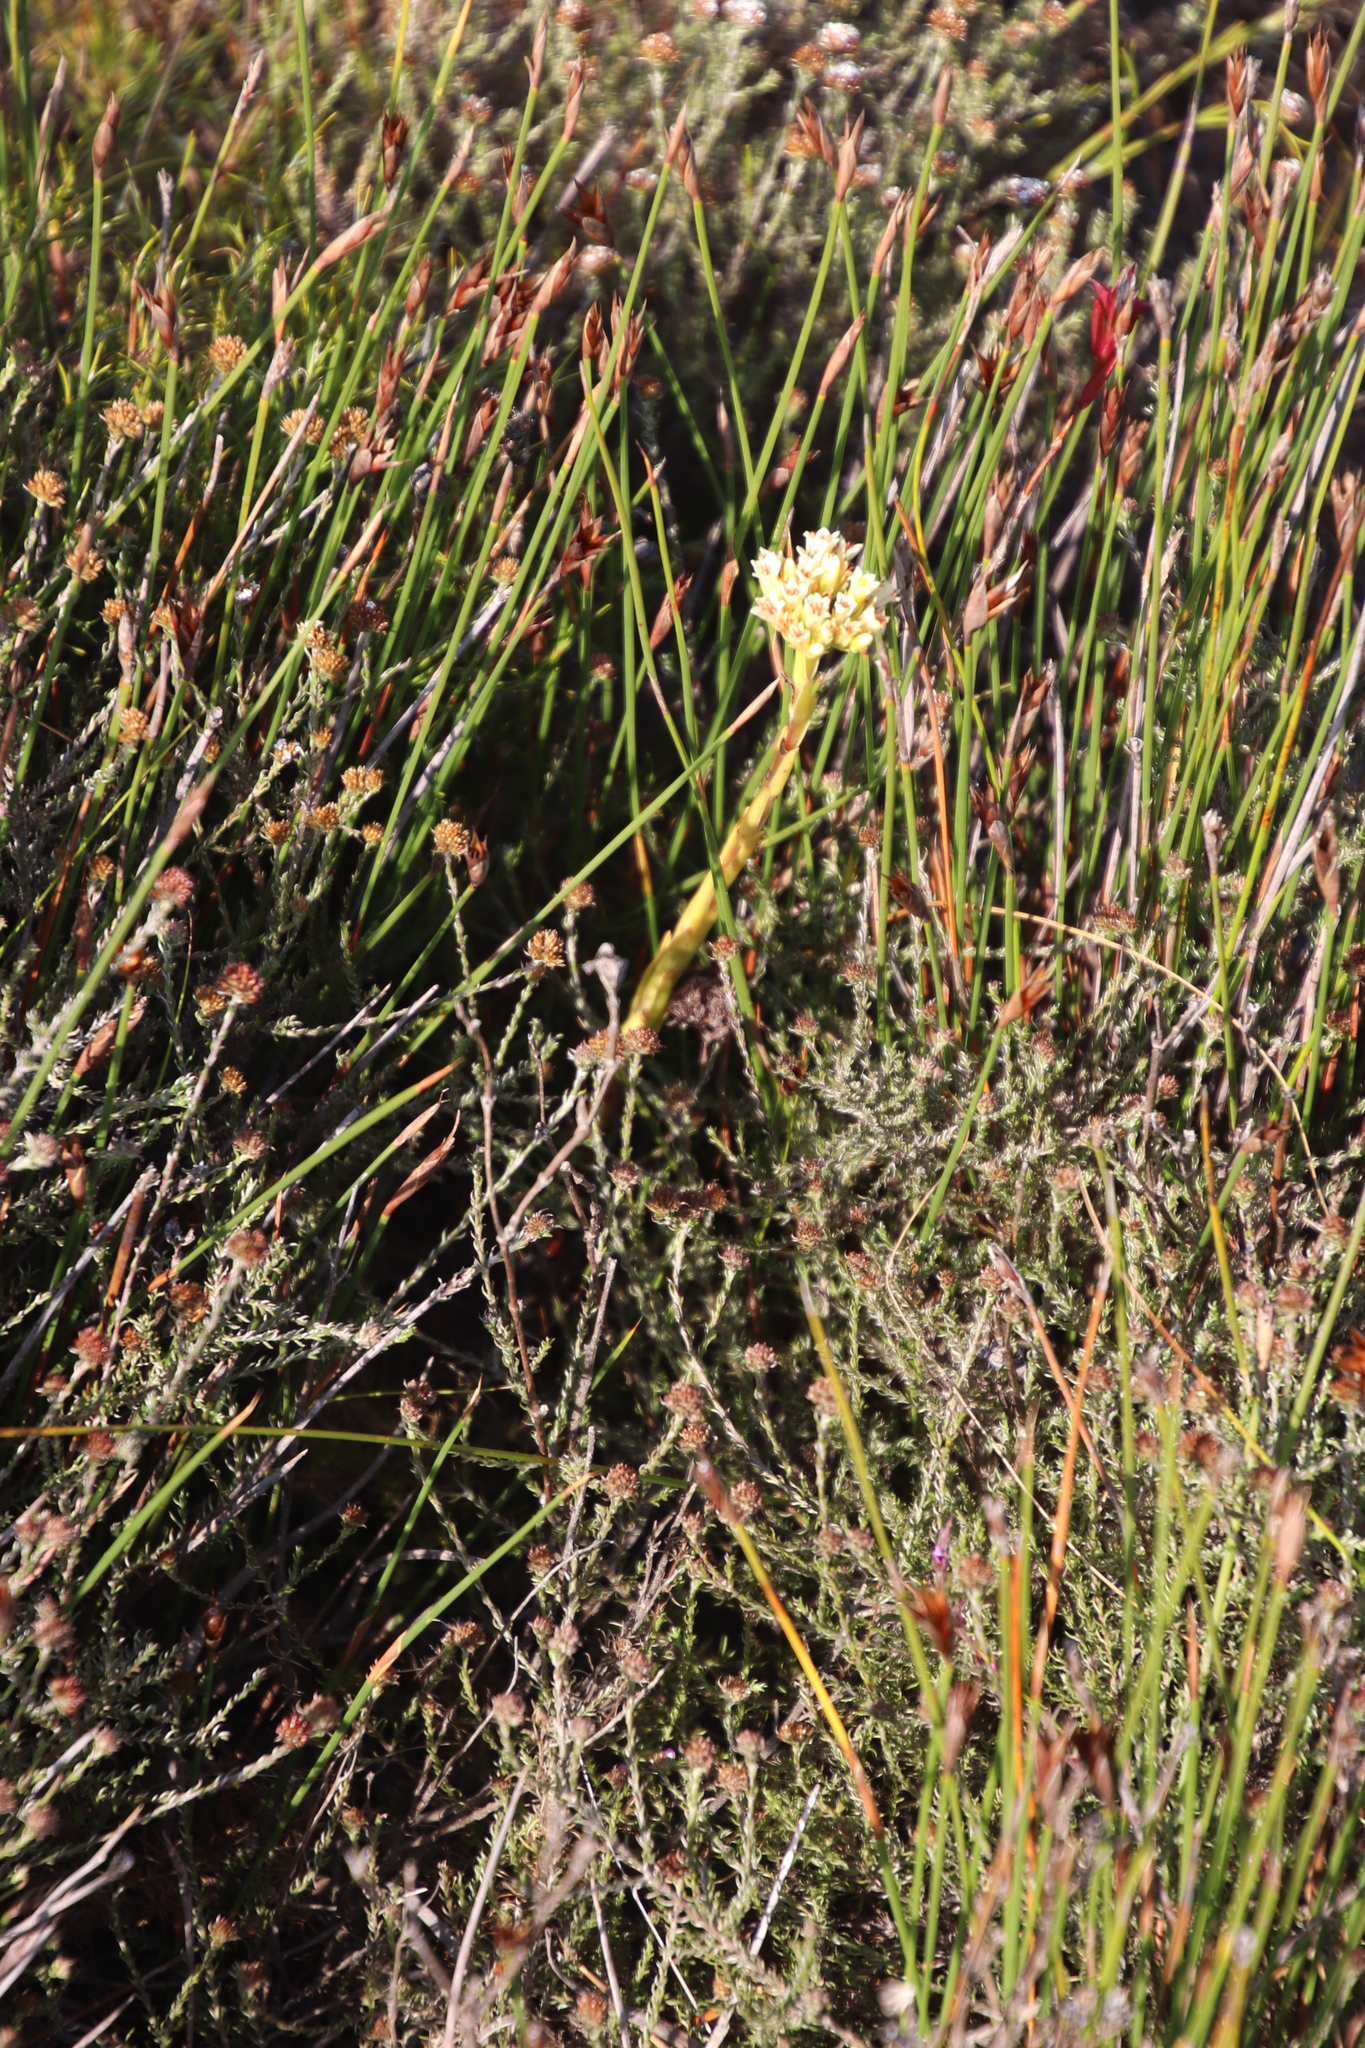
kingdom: Plantae
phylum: Tracheophyta
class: Magnoliopsida
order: Saxifragales
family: Crassulaceae
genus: Crassula
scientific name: Crassula flava
